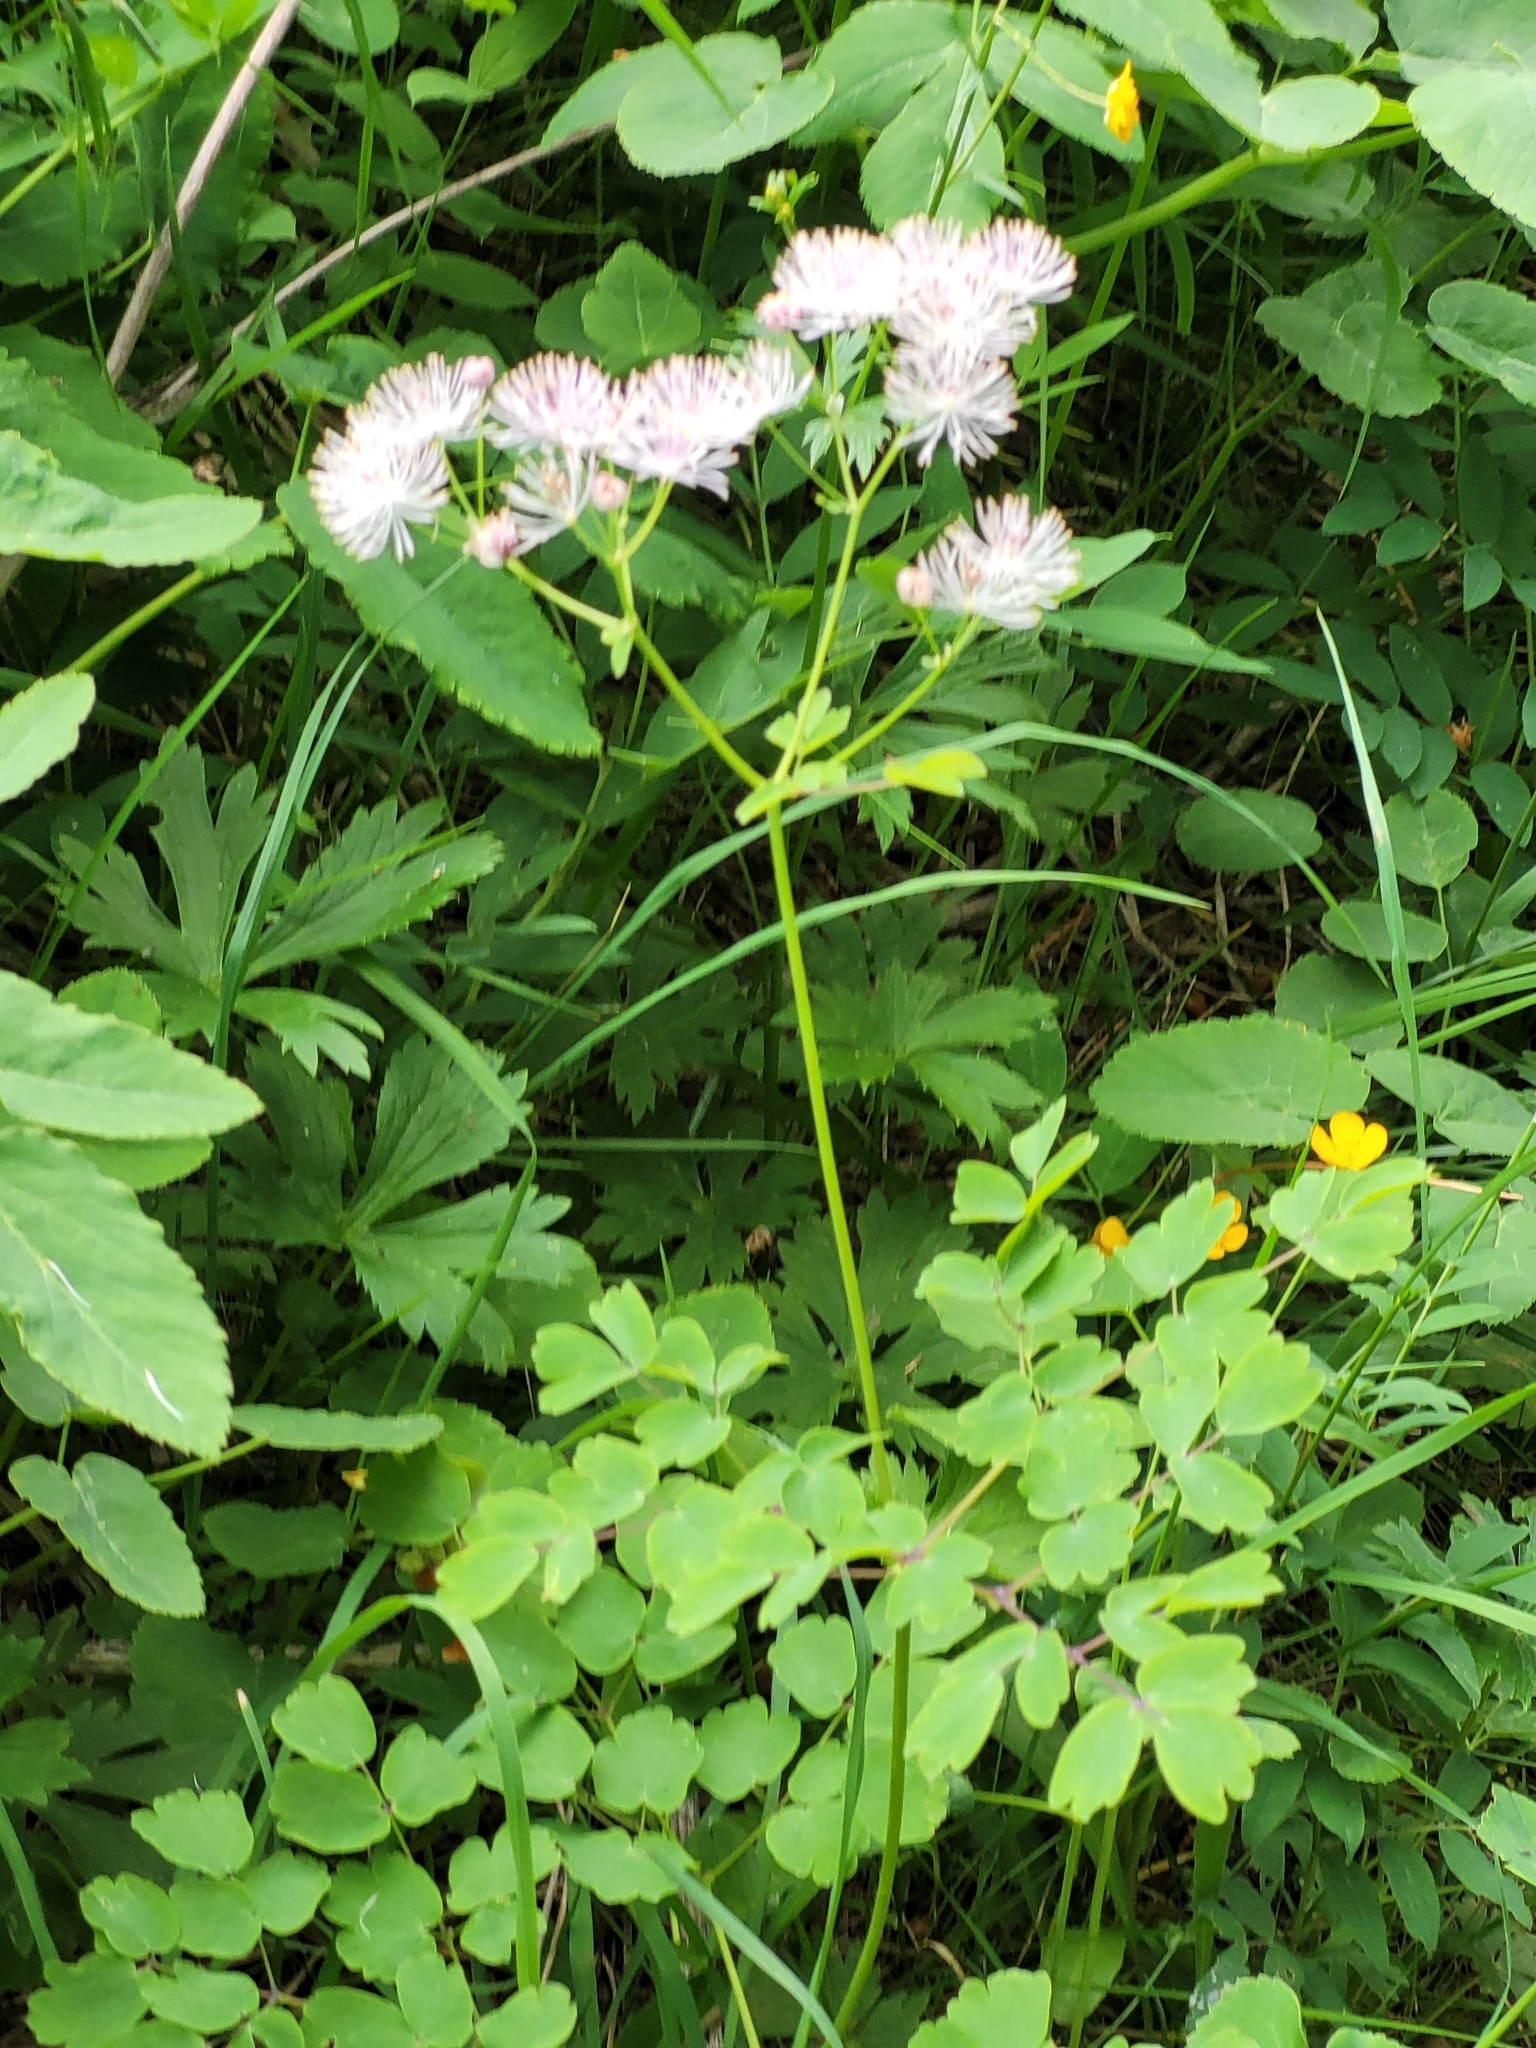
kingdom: Plantae
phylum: Tracheophyta
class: Magnoliopsida
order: Ranunculales
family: Ranunculaceae
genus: Thalictrum
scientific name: Thalictrum aquilegiifolium
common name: French meadow-rue
